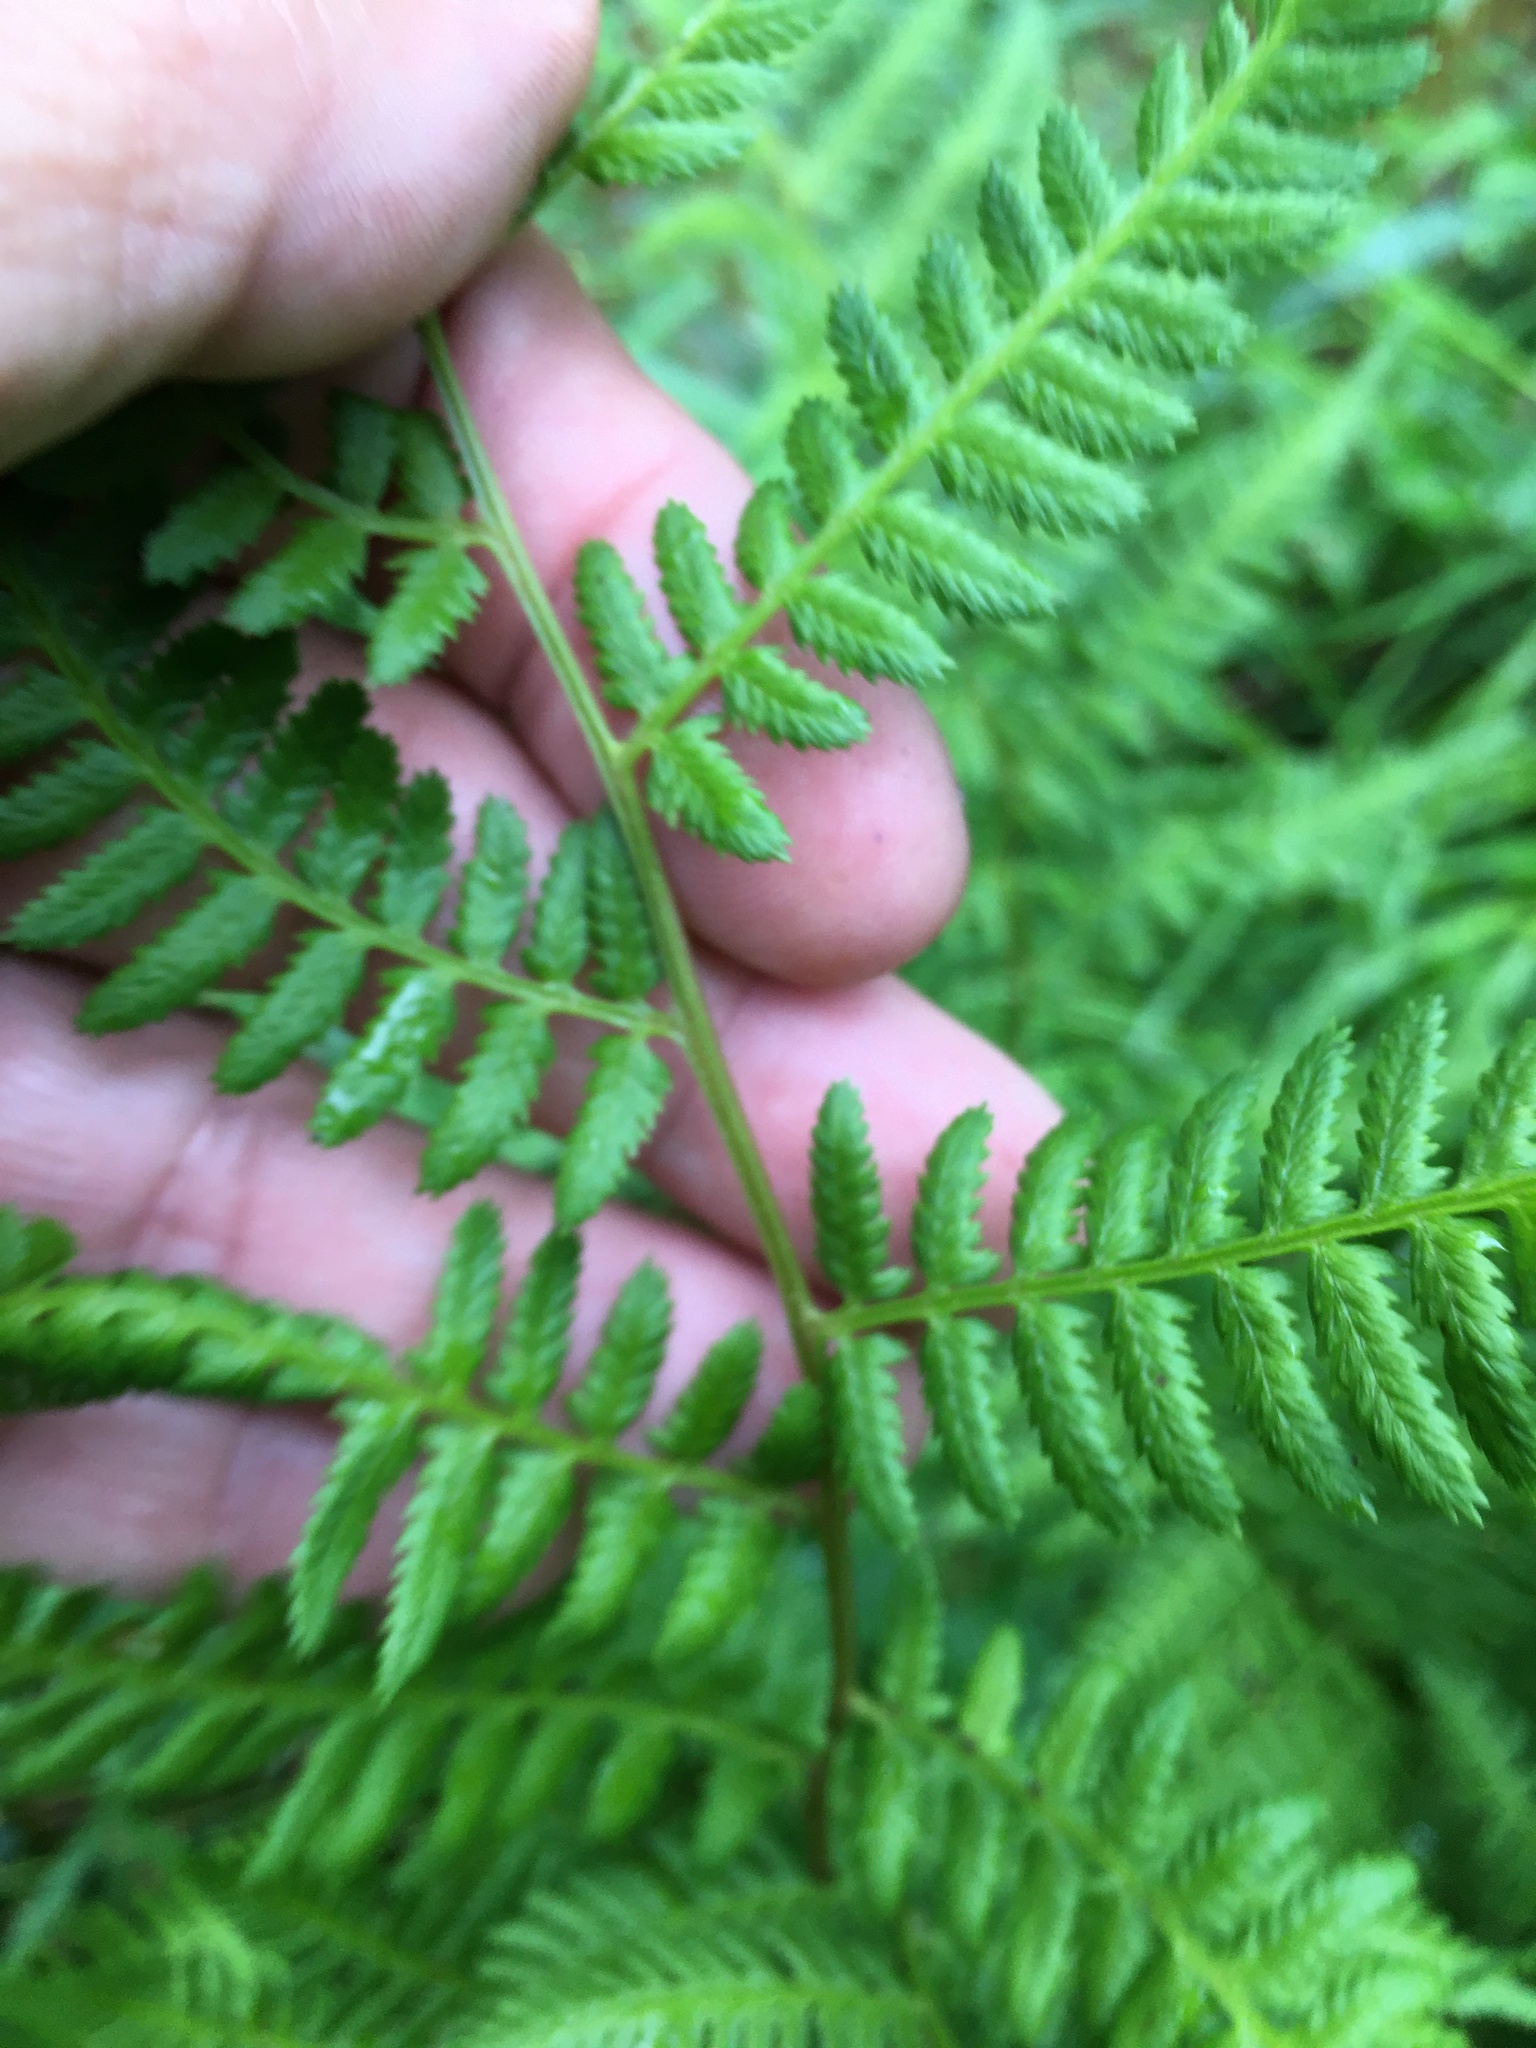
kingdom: Plantae
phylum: Tracheophyta
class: Polypodiopsida
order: Polypodiales
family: Athyriaceae
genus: Athyrium
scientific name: Athyrium asplenioides
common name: Southern lady fern
